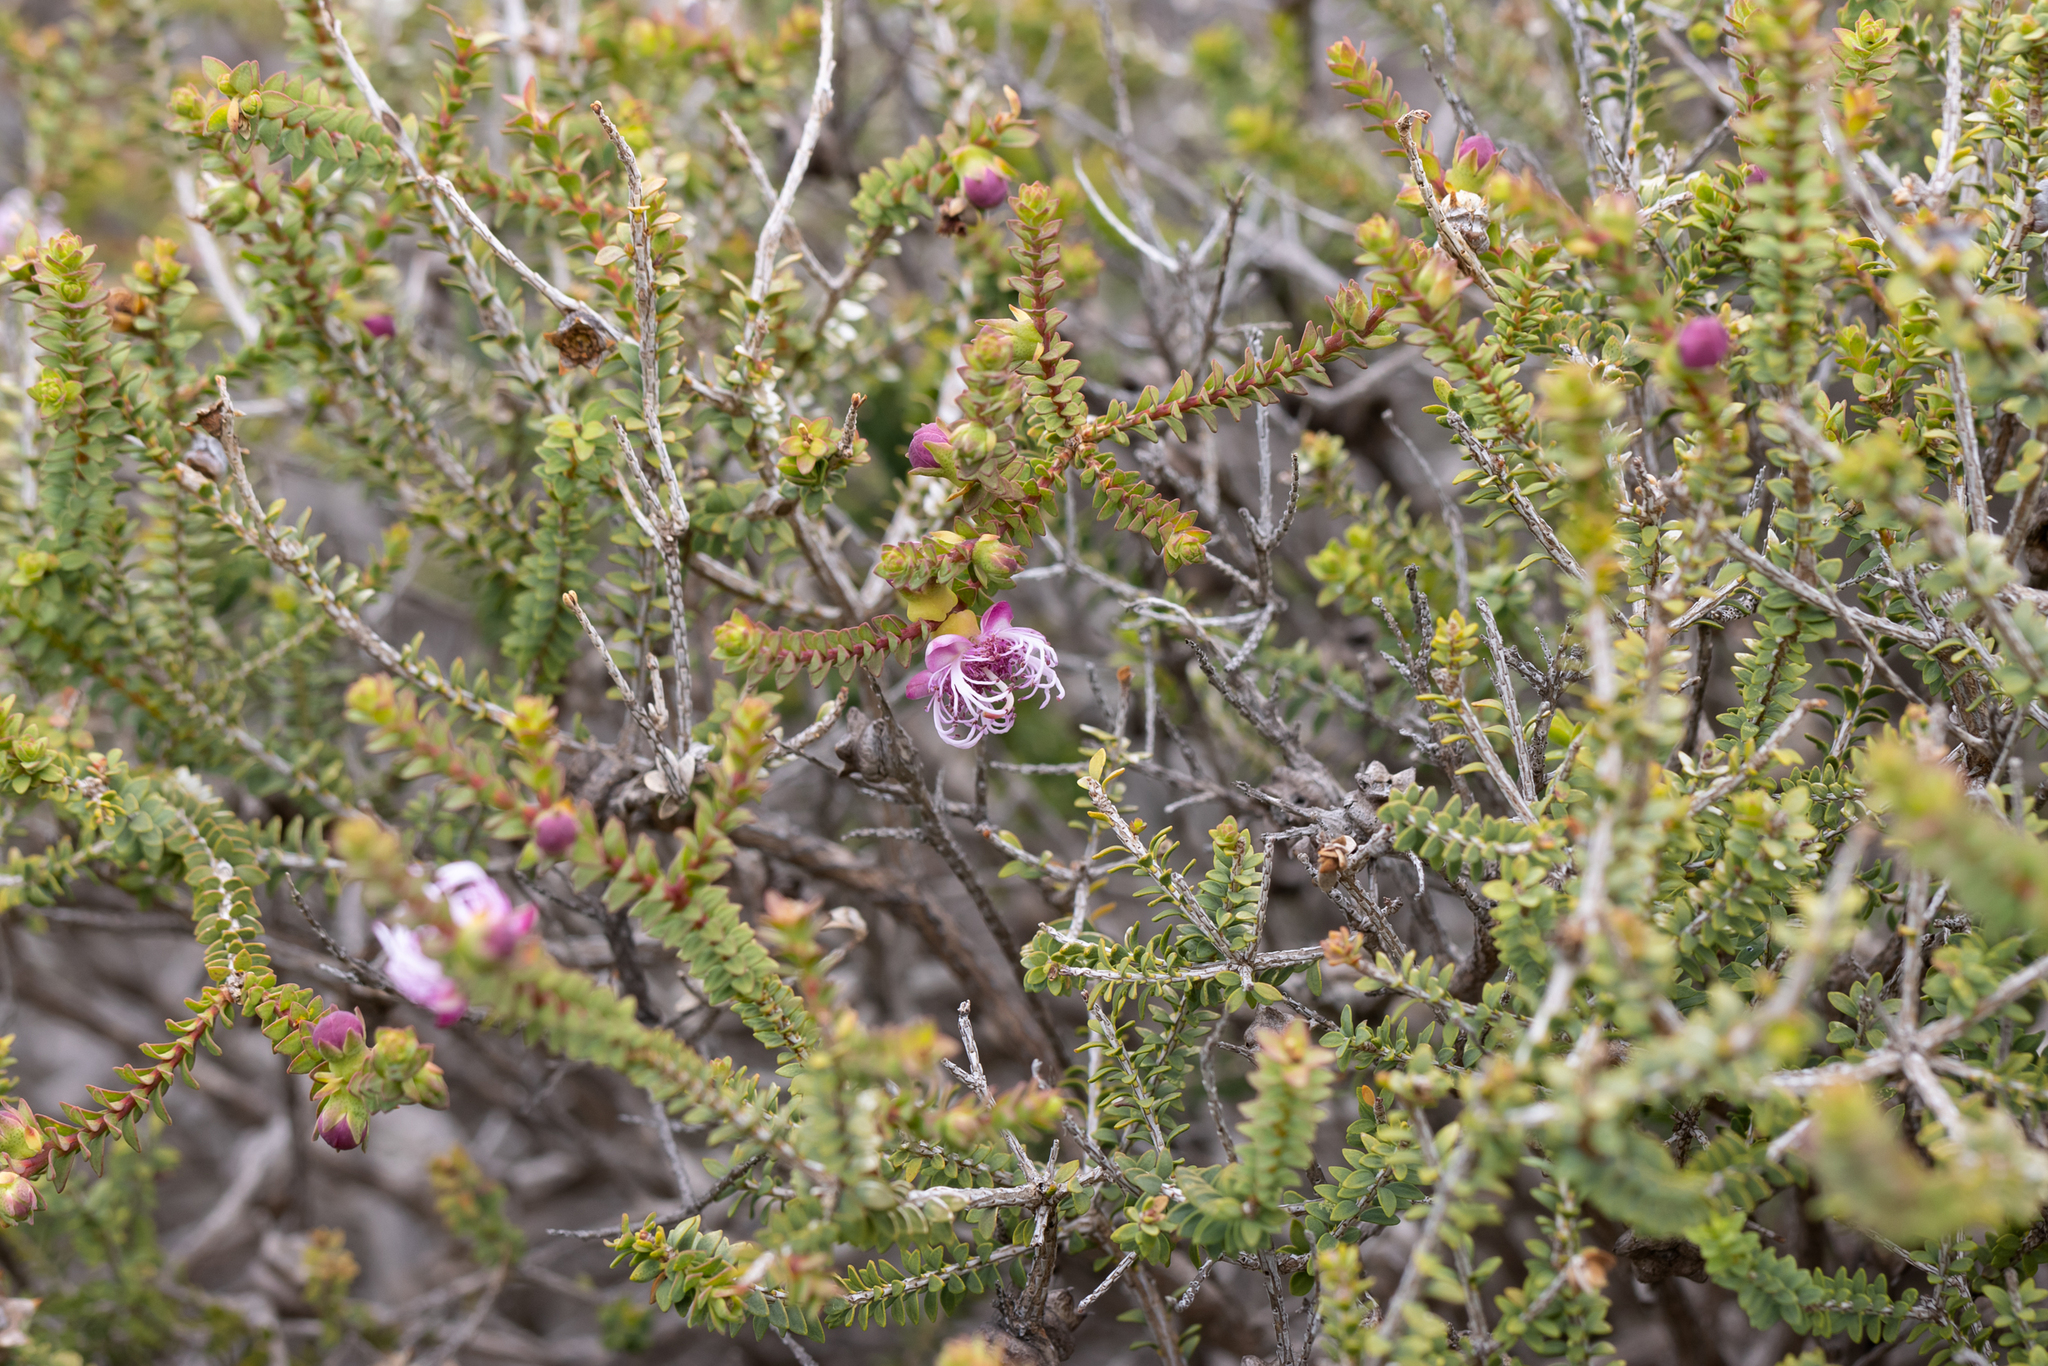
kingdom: Plantae
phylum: Tracheophyta
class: Magnoliopsida
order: Myrtales
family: Myrtaceae
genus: Melaleuca
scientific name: Melaleuca pulchella
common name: Claw-flower
